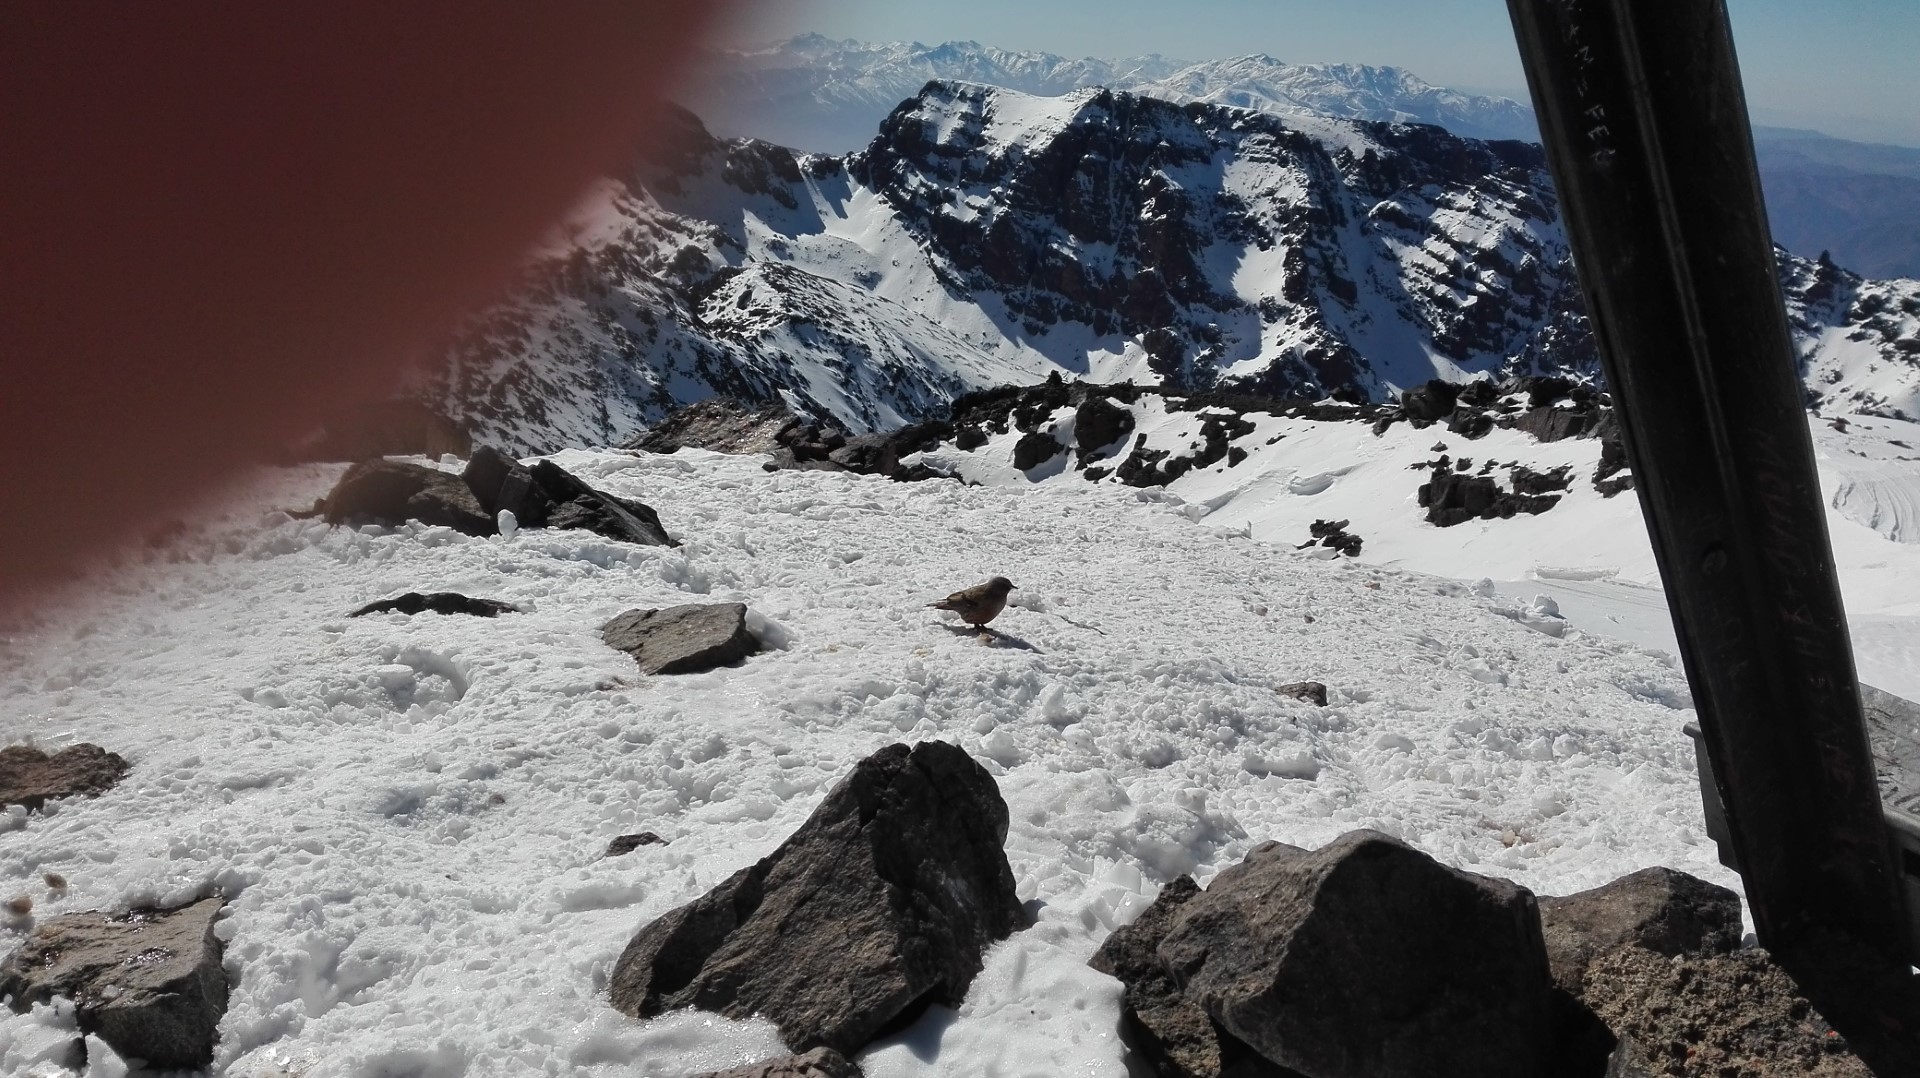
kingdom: Animalia
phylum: Chordata
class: Aves
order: Passeriformes
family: Prunellidae
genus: Prunella
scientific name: Prunella collaris
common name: Alpine accentor
